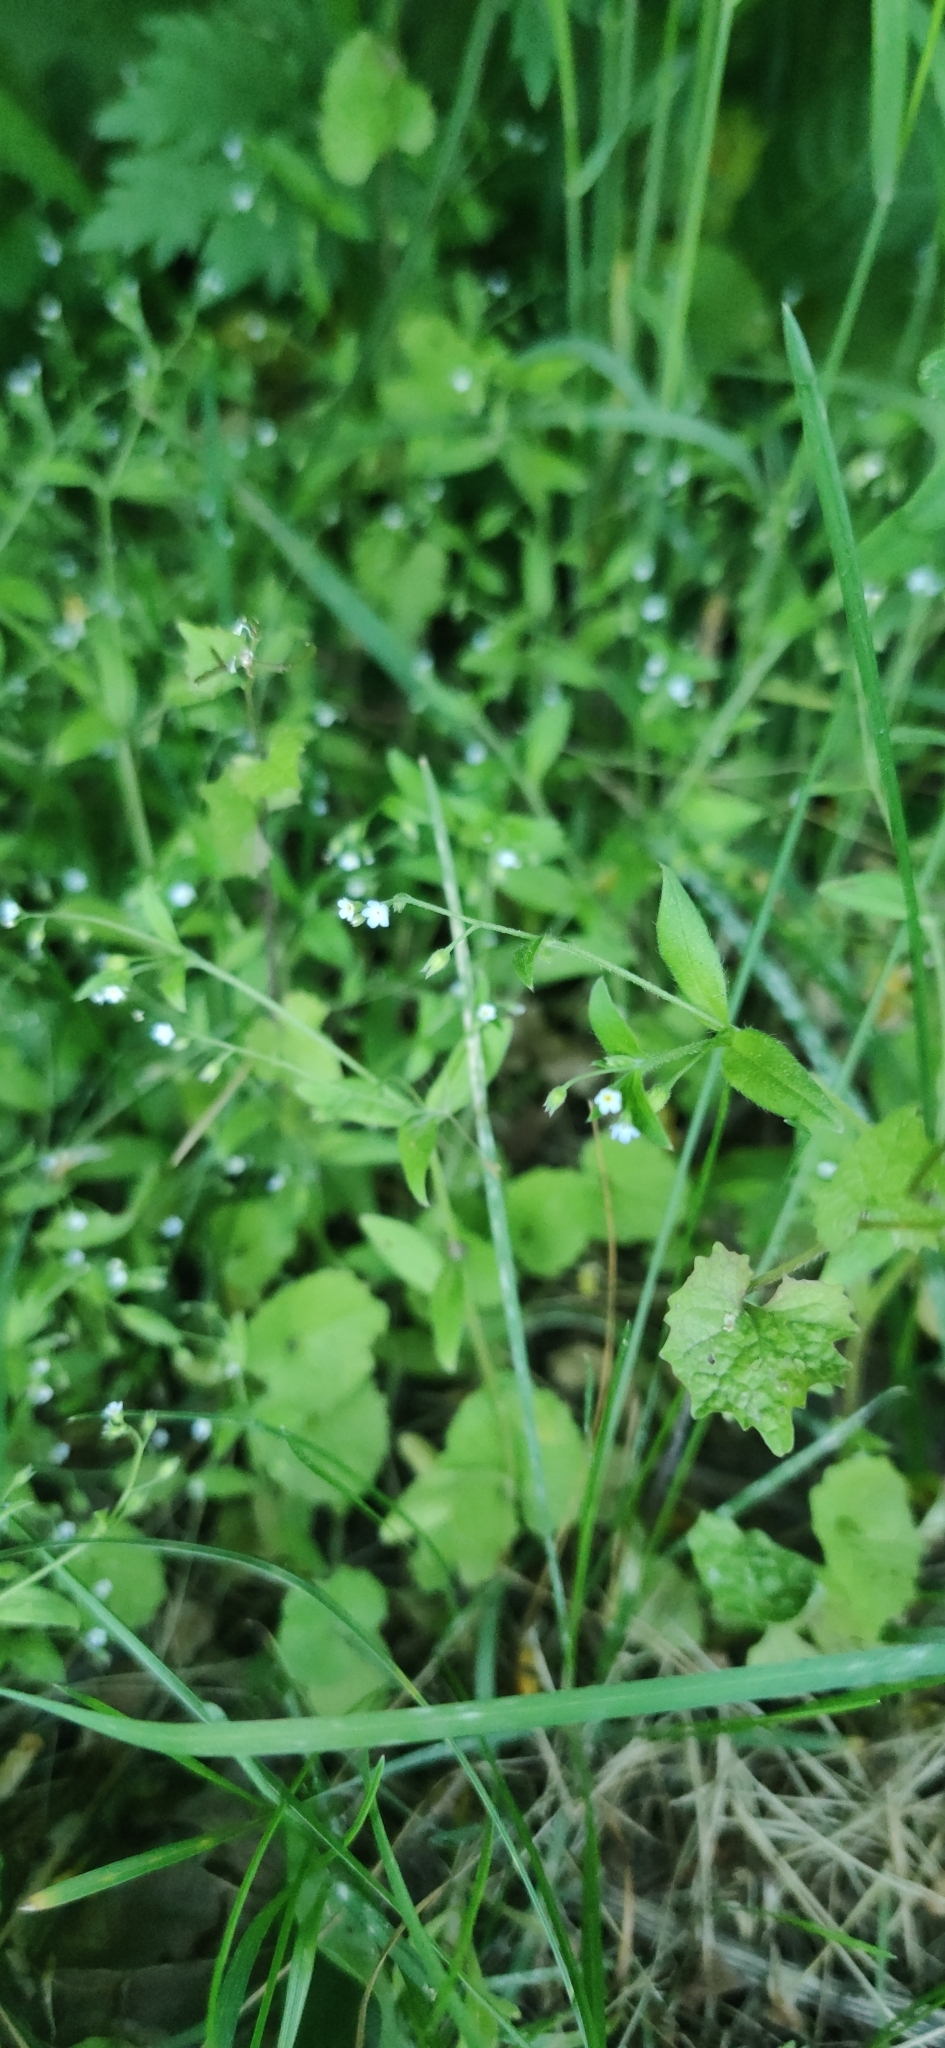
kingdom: Plantae
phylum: Tracheophyta
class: Magnoliopsida
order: Boraginales
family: Boraginaceae
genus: Myosotis
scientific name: Myosotis sparsiflora
